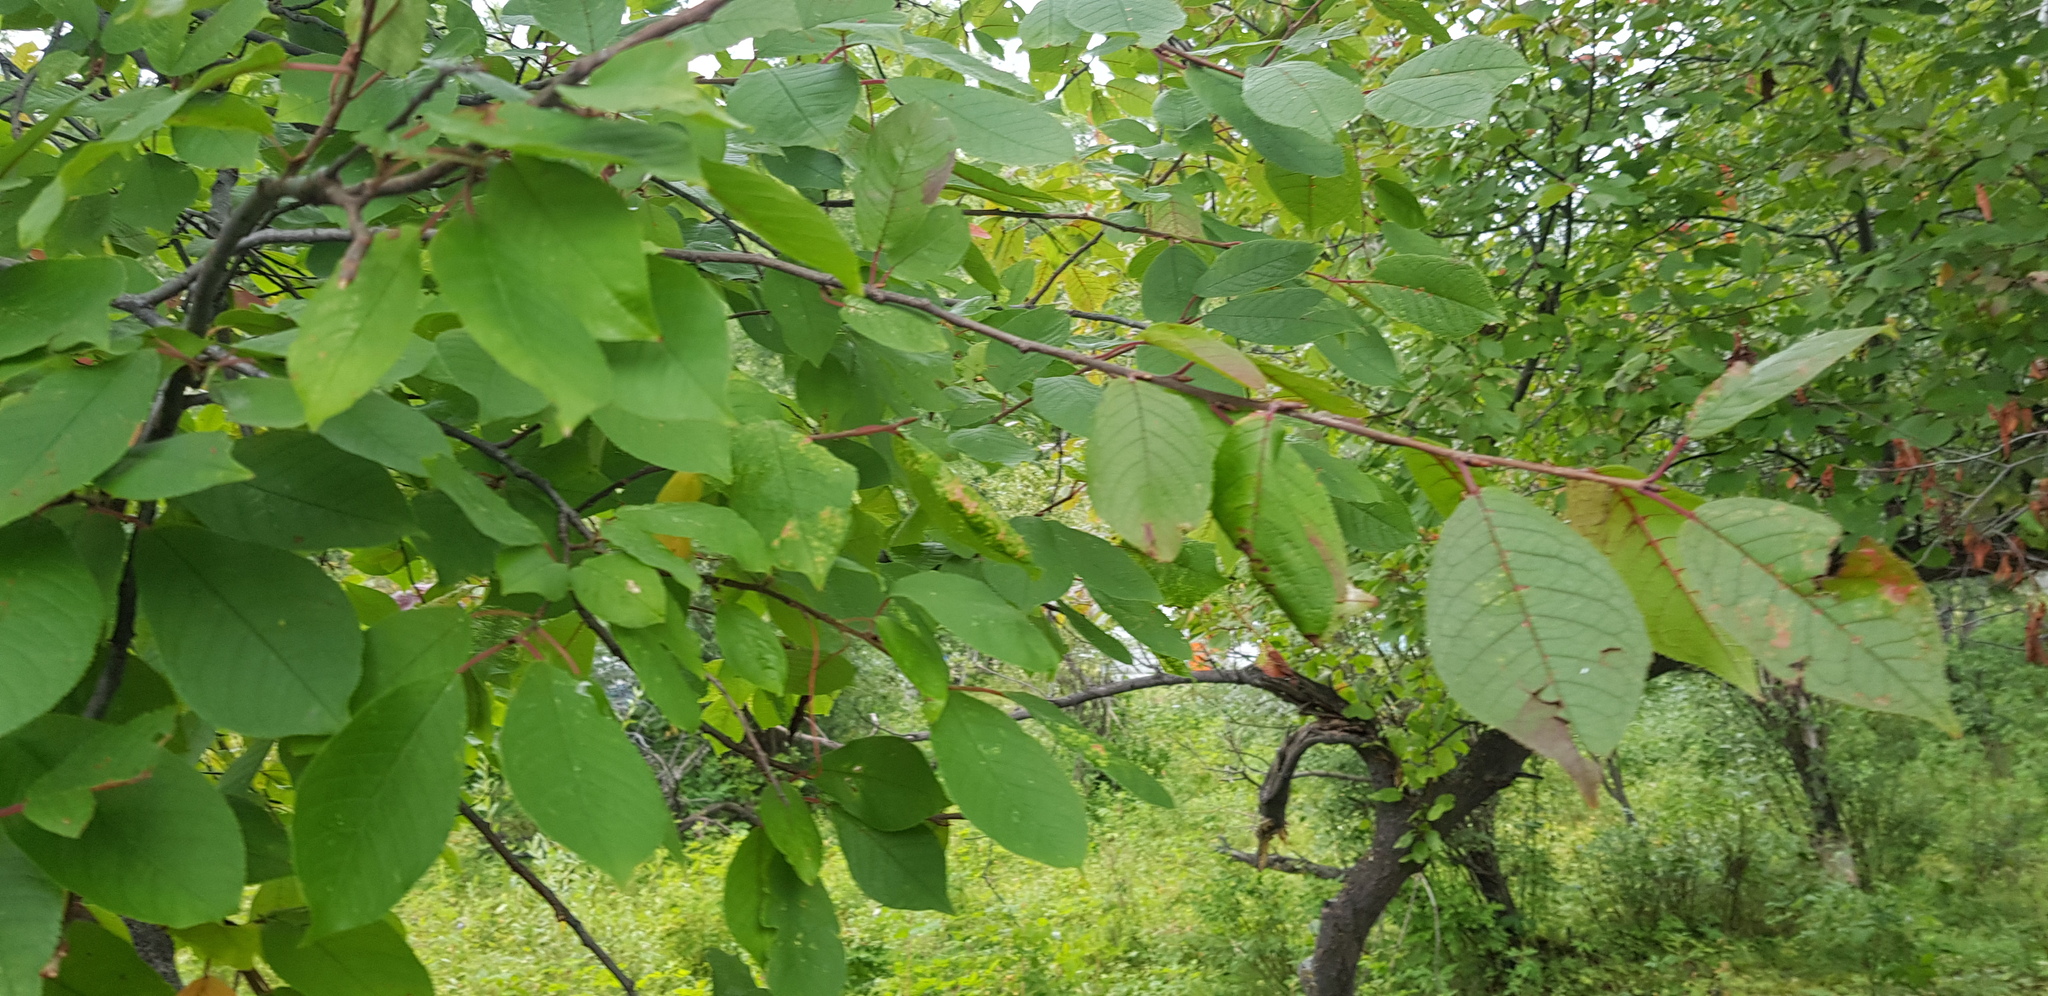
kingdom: Plantae
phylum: Tracheophyta
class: Magnoliopsida
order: Rosales
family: Rosaceae
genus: Prunus
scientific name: Prunus padus
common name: Bird cherry
